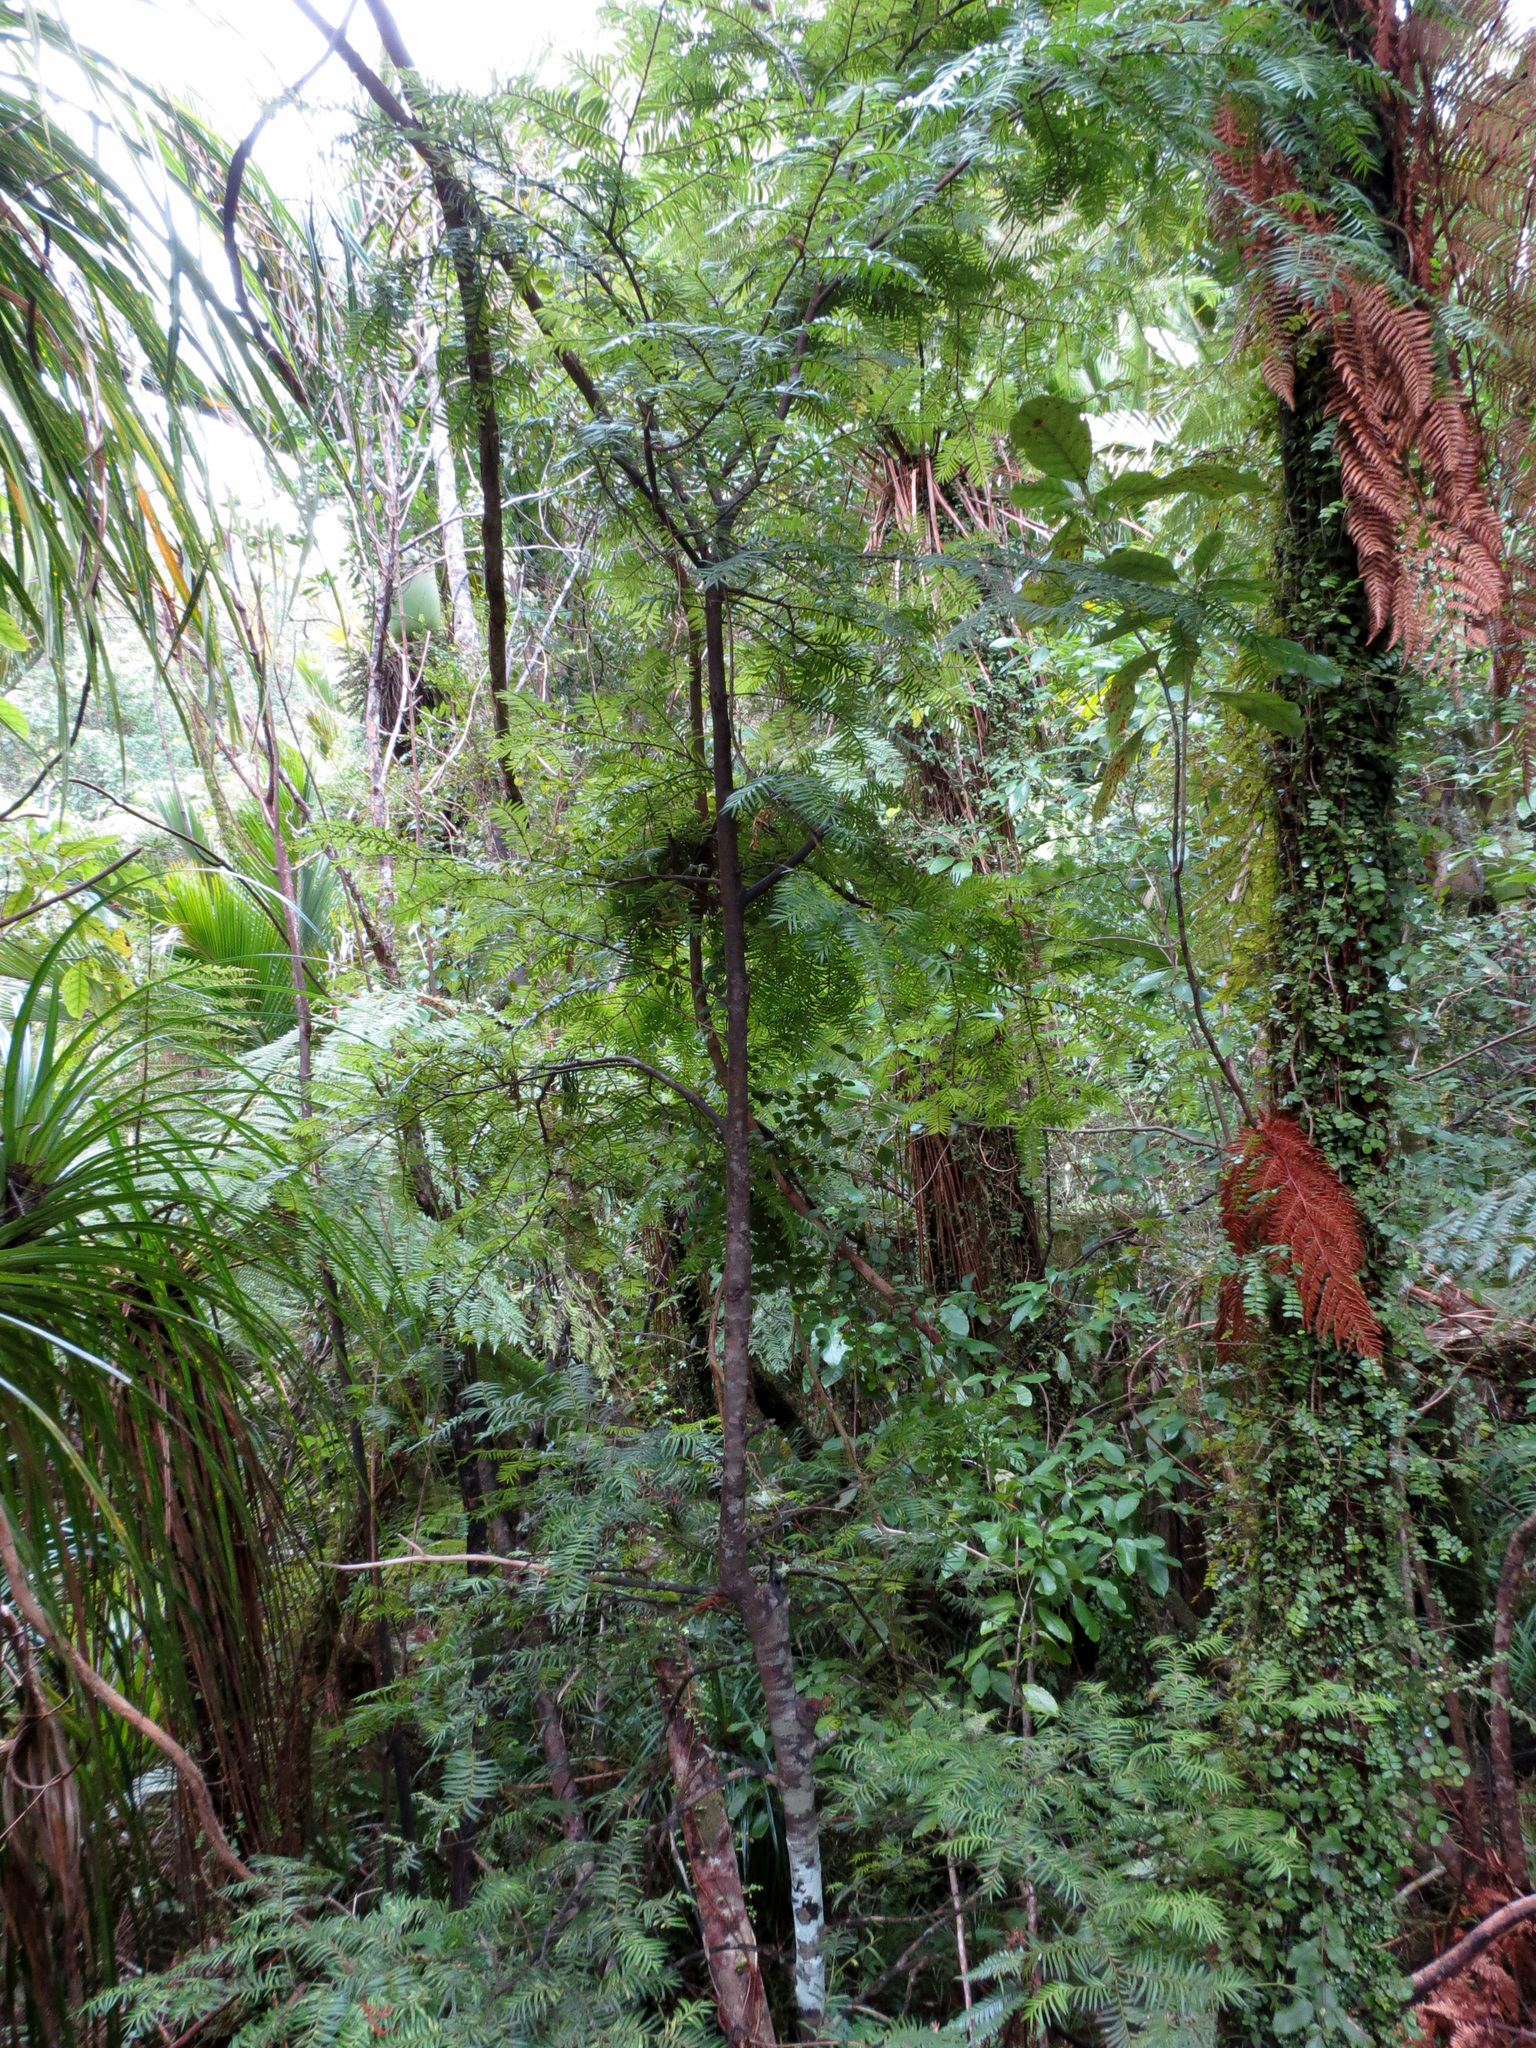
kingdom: Plantae
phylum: Tracheophyta
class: Pinopsida
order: Pinales
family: Podocarpaceae
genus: Prumnopitys
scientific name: Prumnopitys ferruginea
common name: Brown pine
